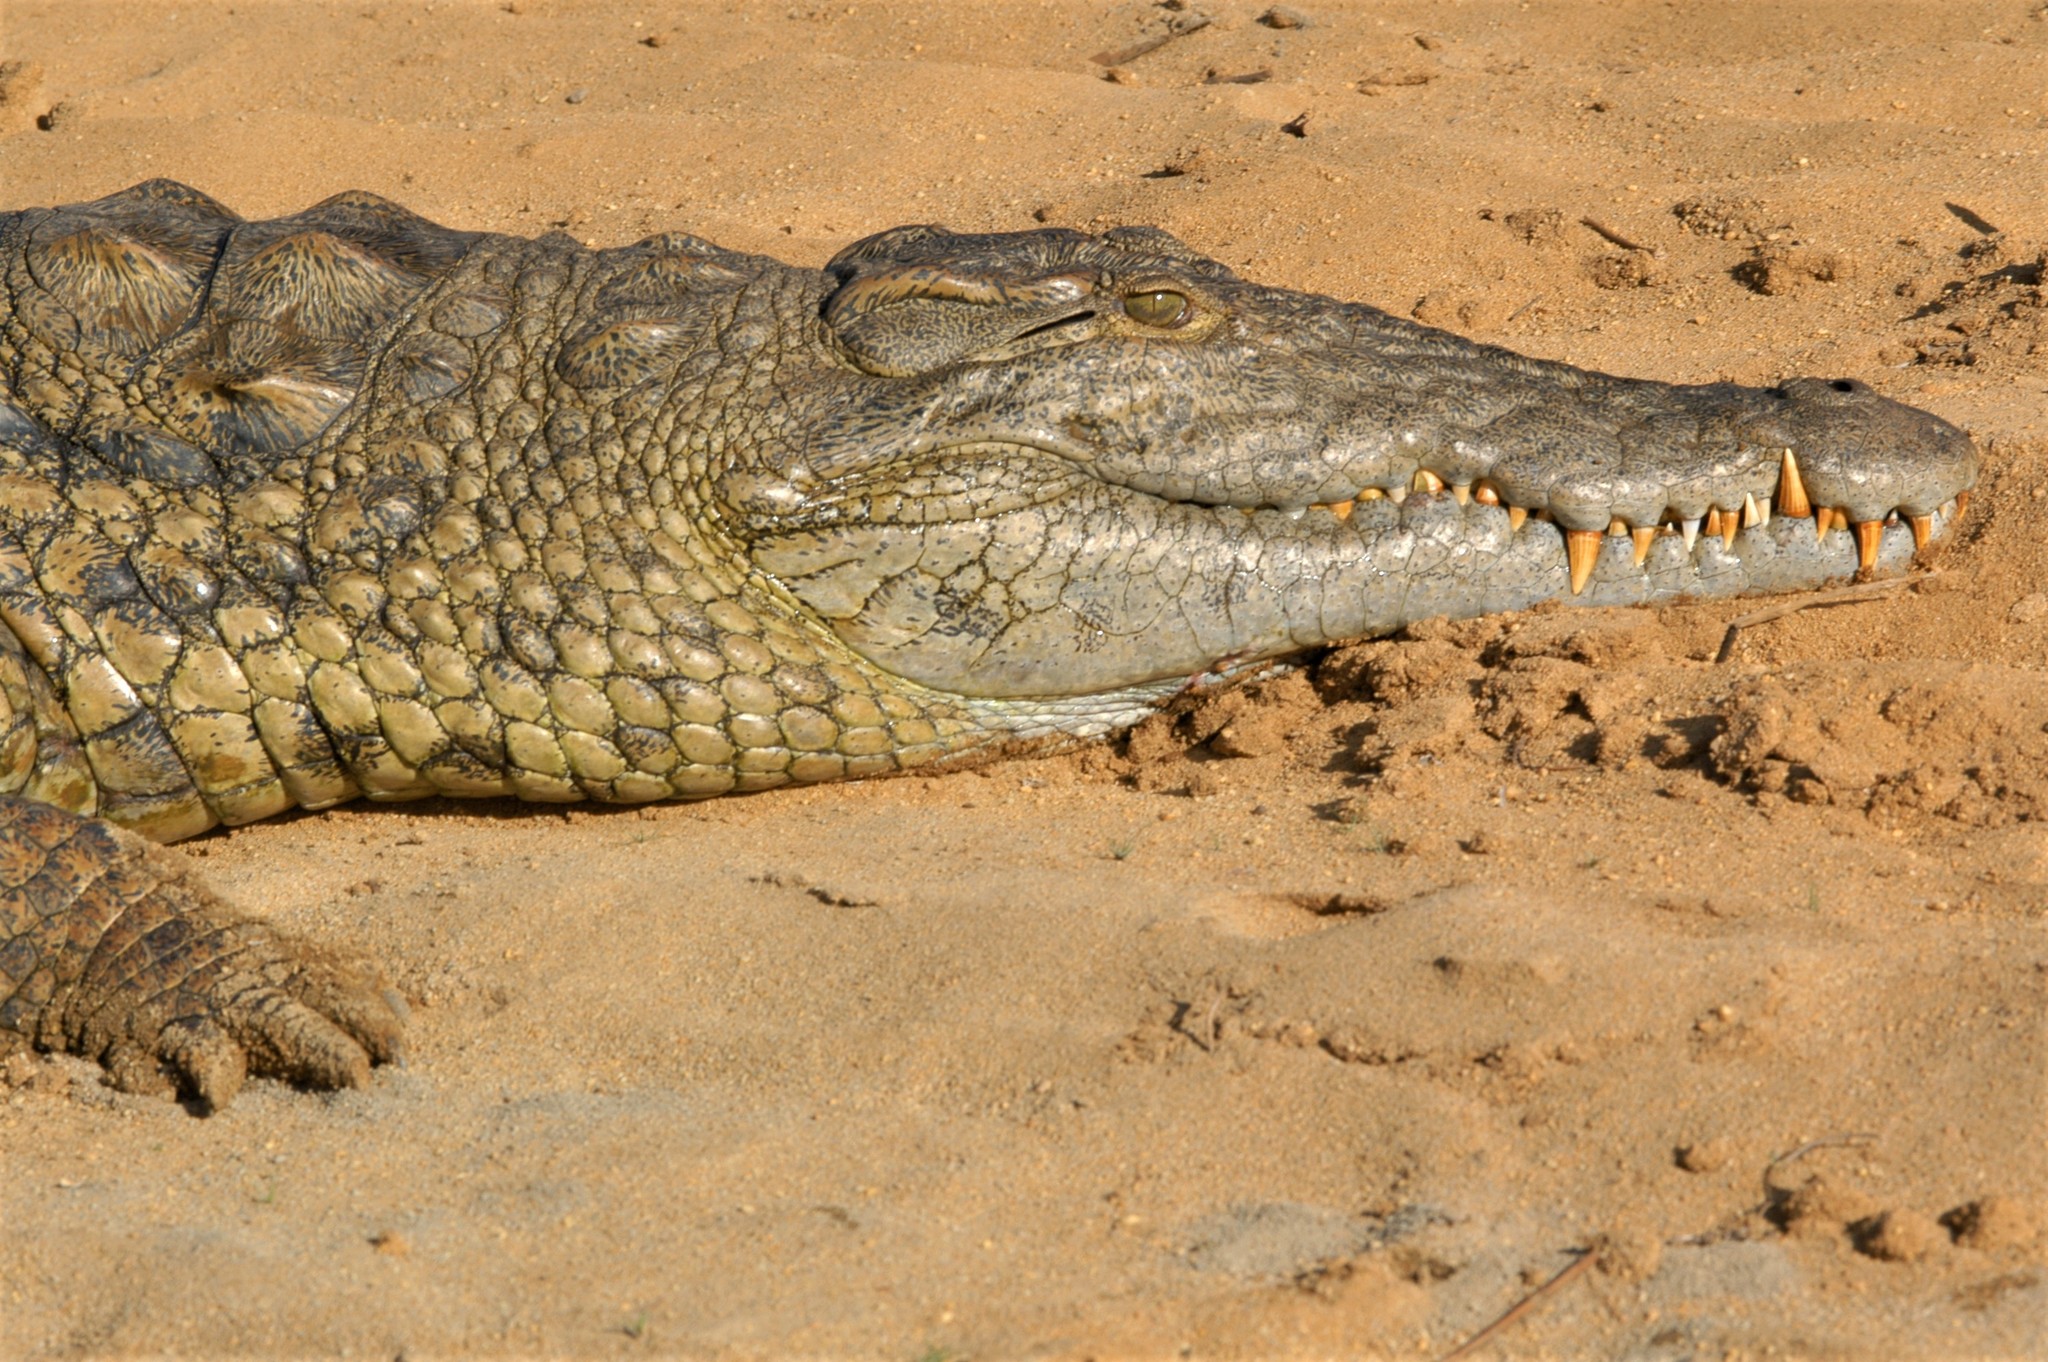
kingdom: Animalia
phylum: Chordata
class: Crocodylia
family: Crocodylidae
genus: Crocodylus
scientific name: Crocodylus niloticus
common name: Nile crocodile
